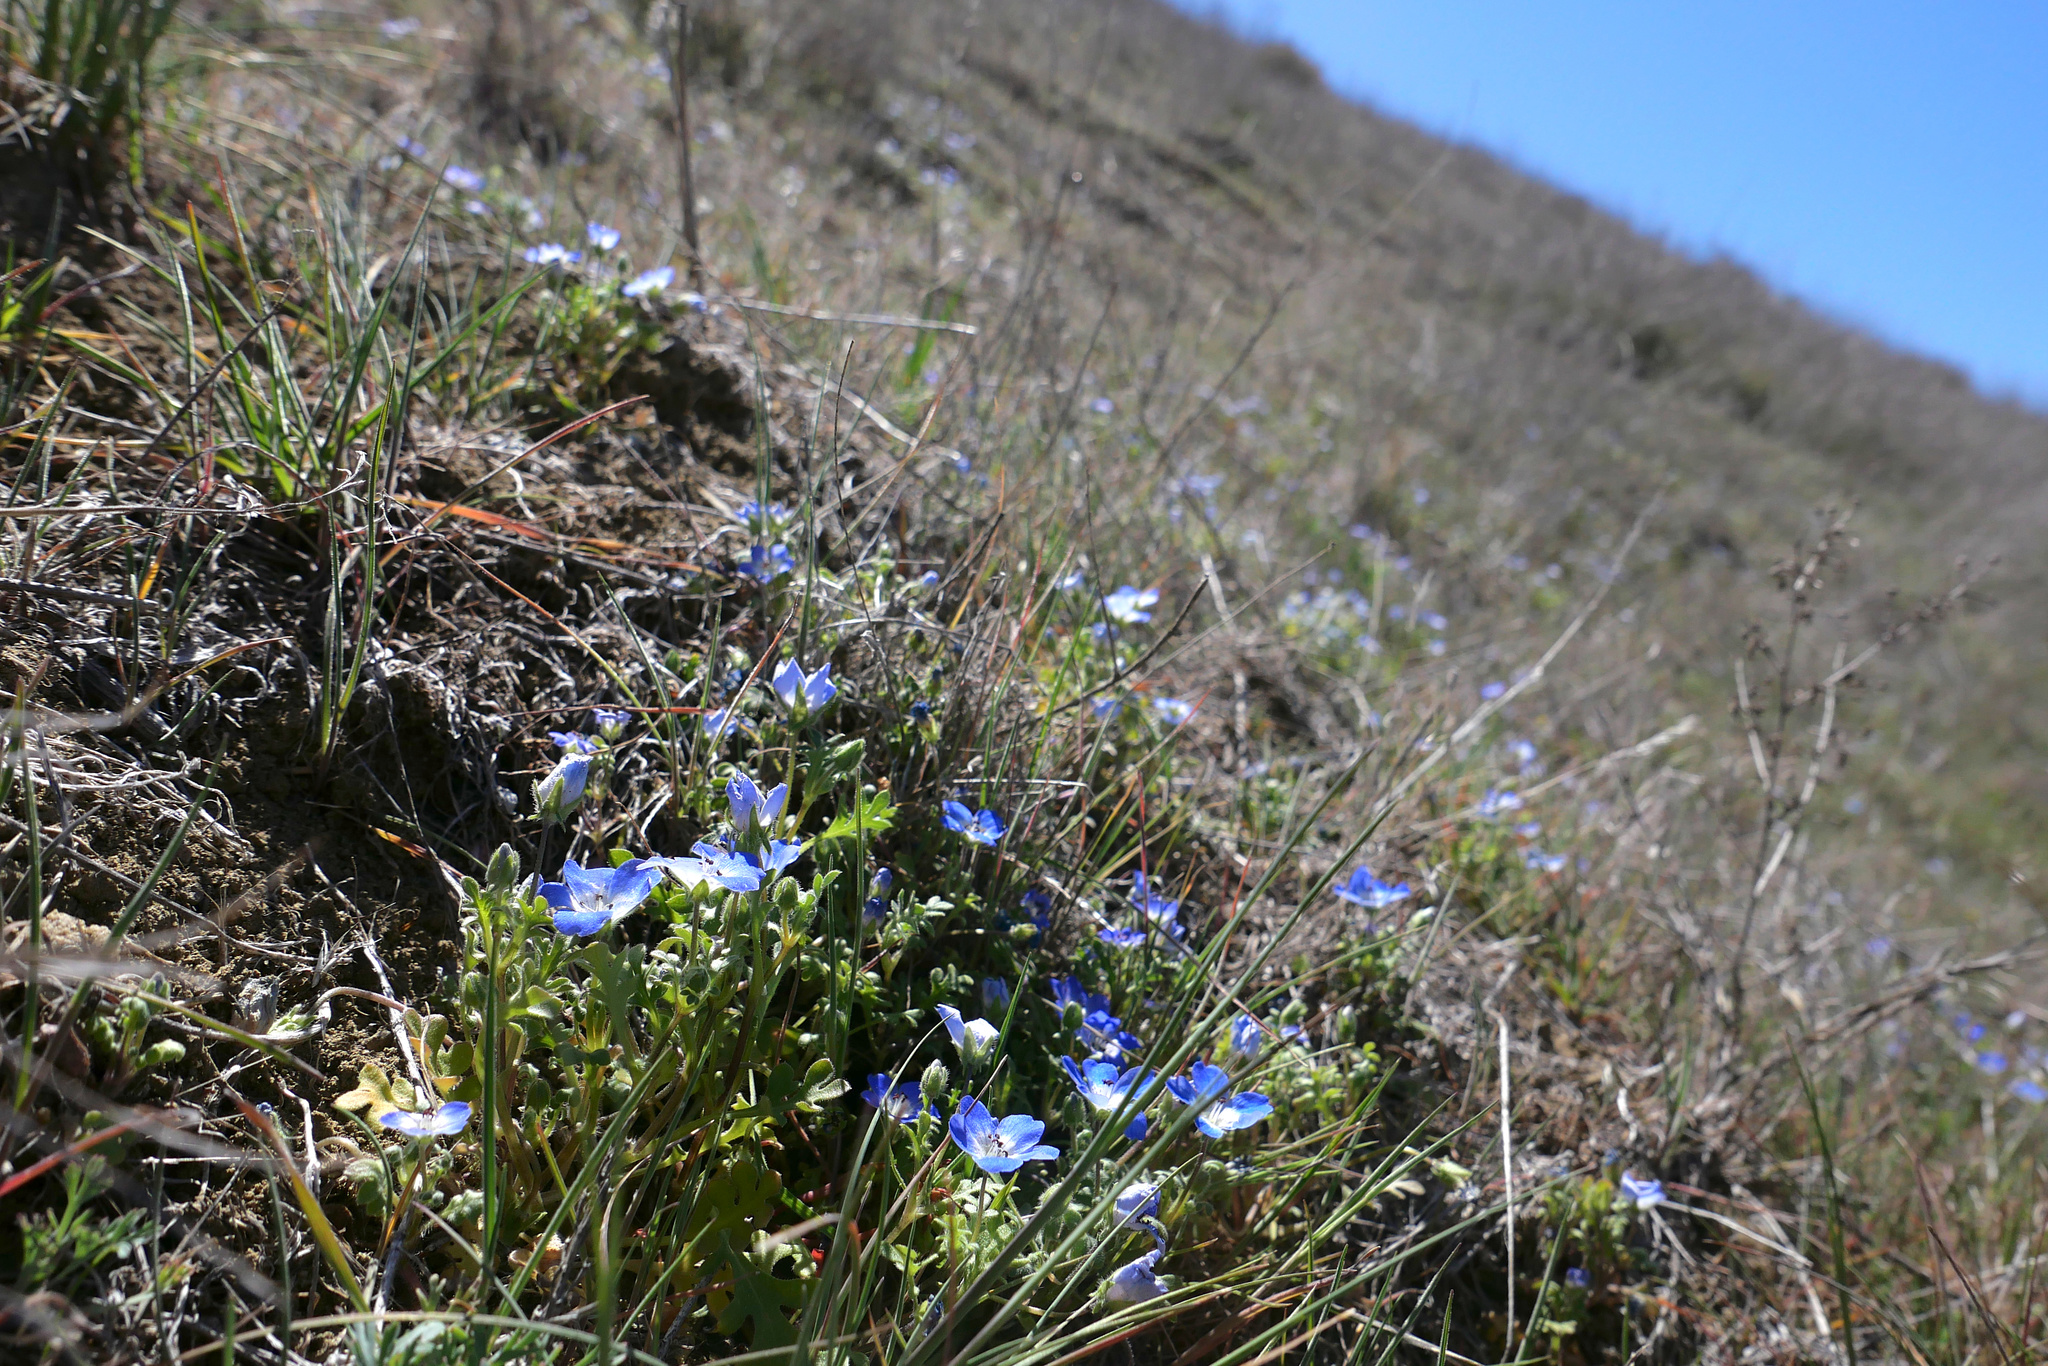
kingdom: Plantae
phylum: Tracheophyta
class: Magnoliopsida
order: Boraginales
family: Hydrophyllaceae
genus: Nemophila
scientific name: Nemophila menziesii
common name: Baby's-blue-eyes
